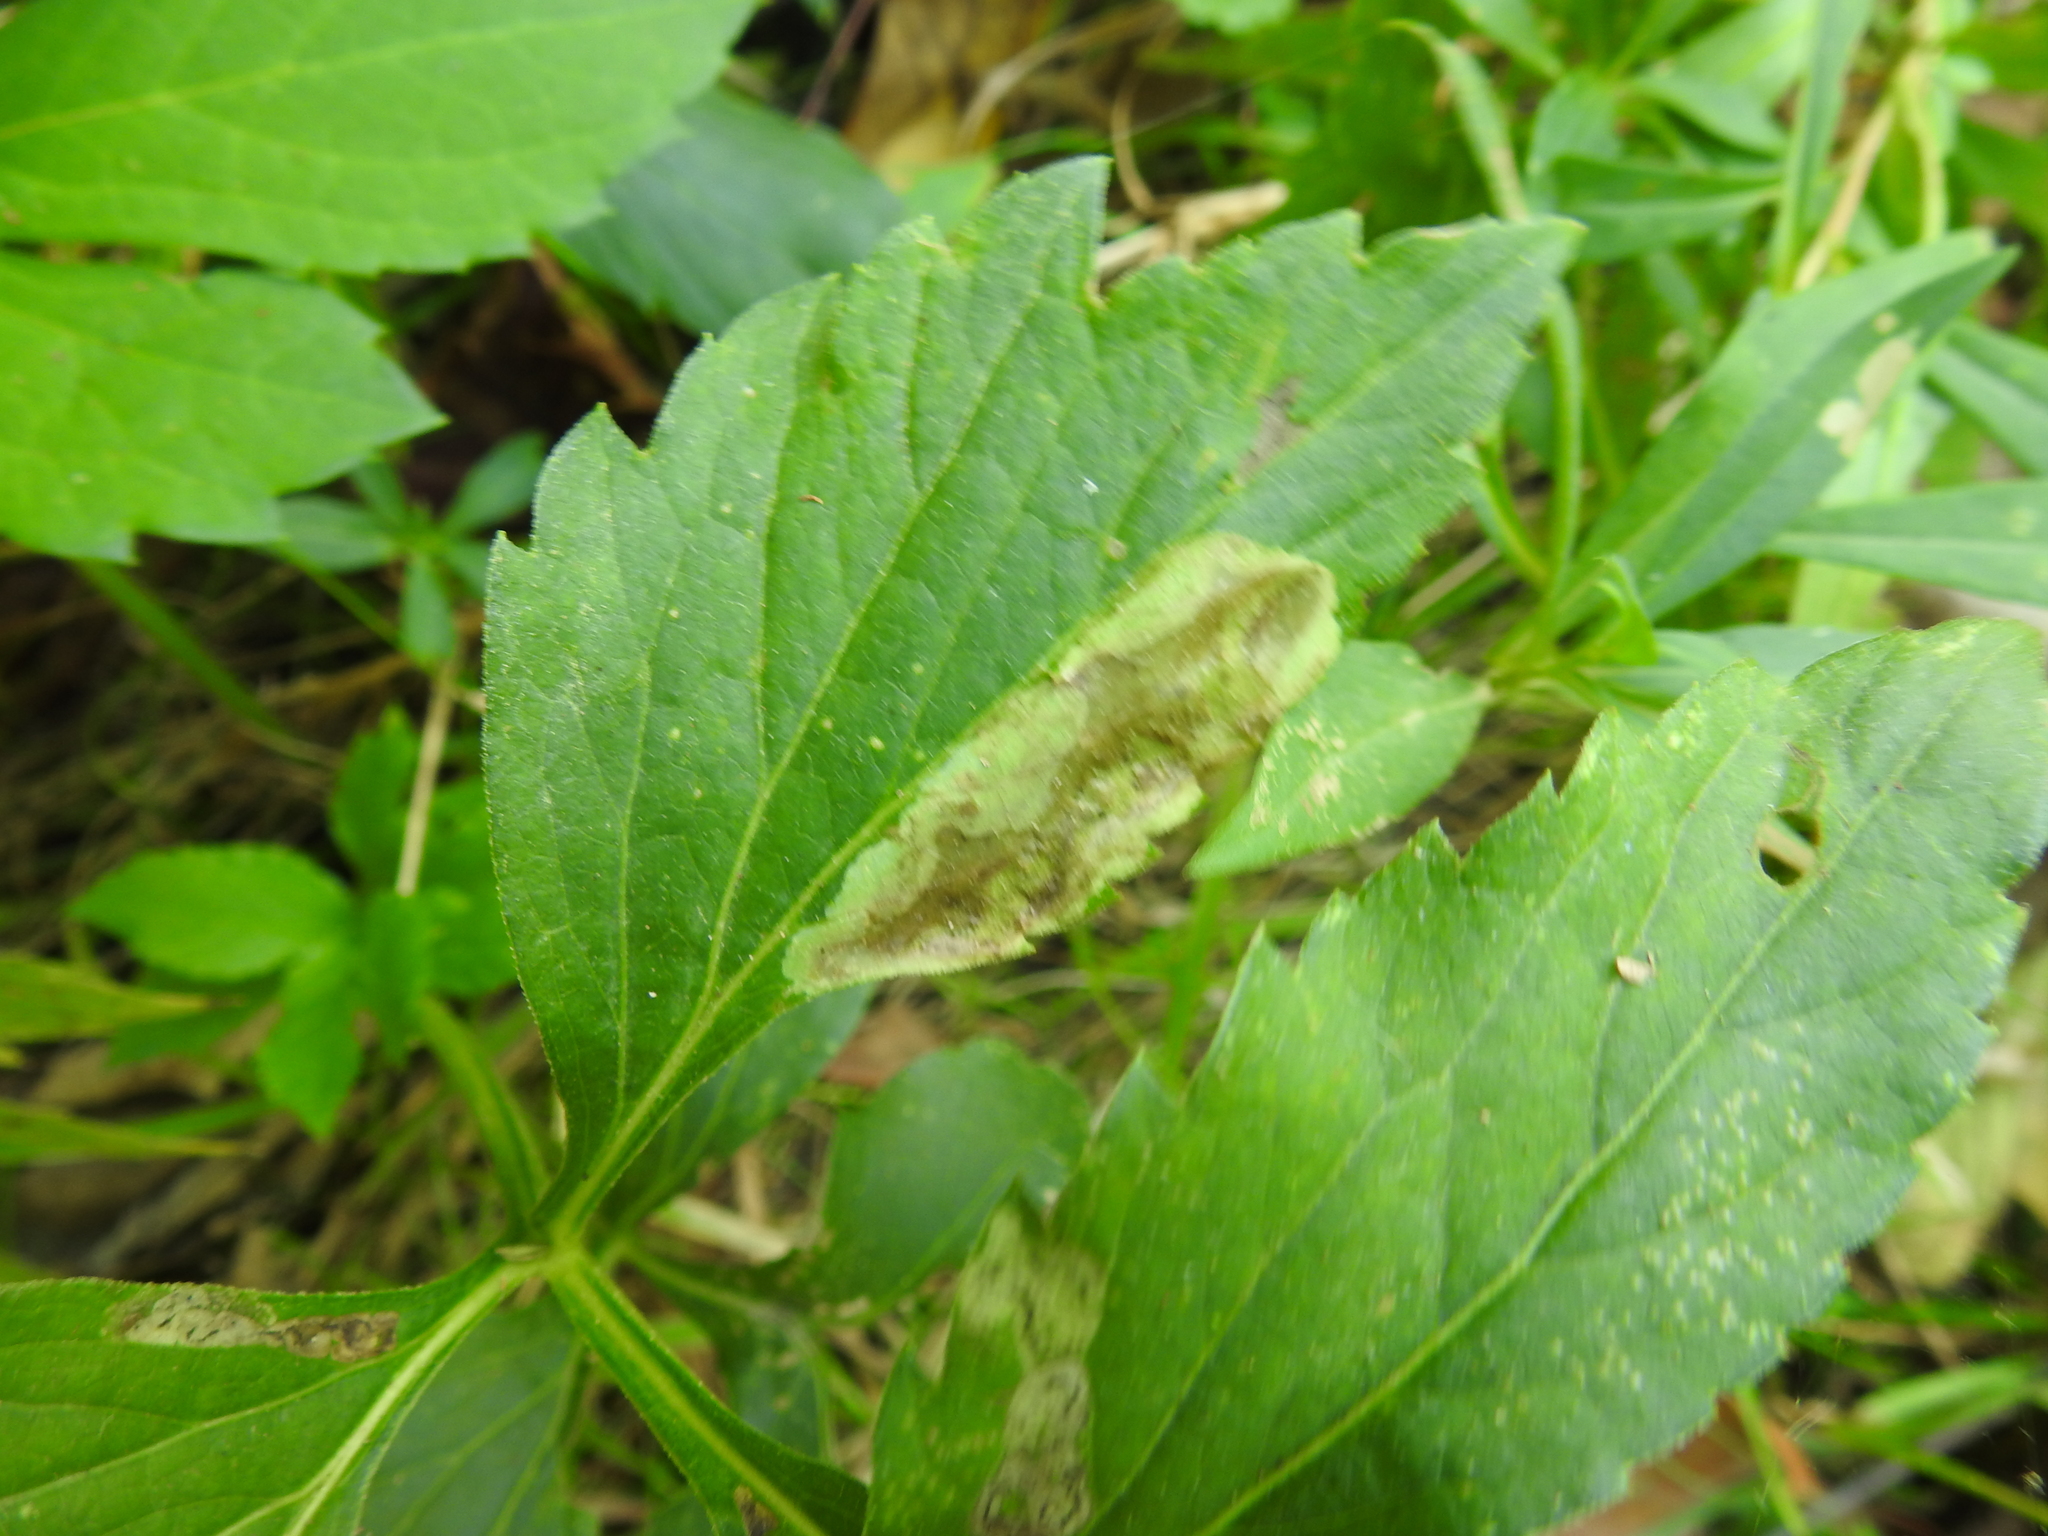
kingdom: Animalia
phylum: Arthropoda
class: Insecta
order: Diptera
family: Agromyzidae
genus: Calycomyza
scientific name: Calycomyza frickiana
